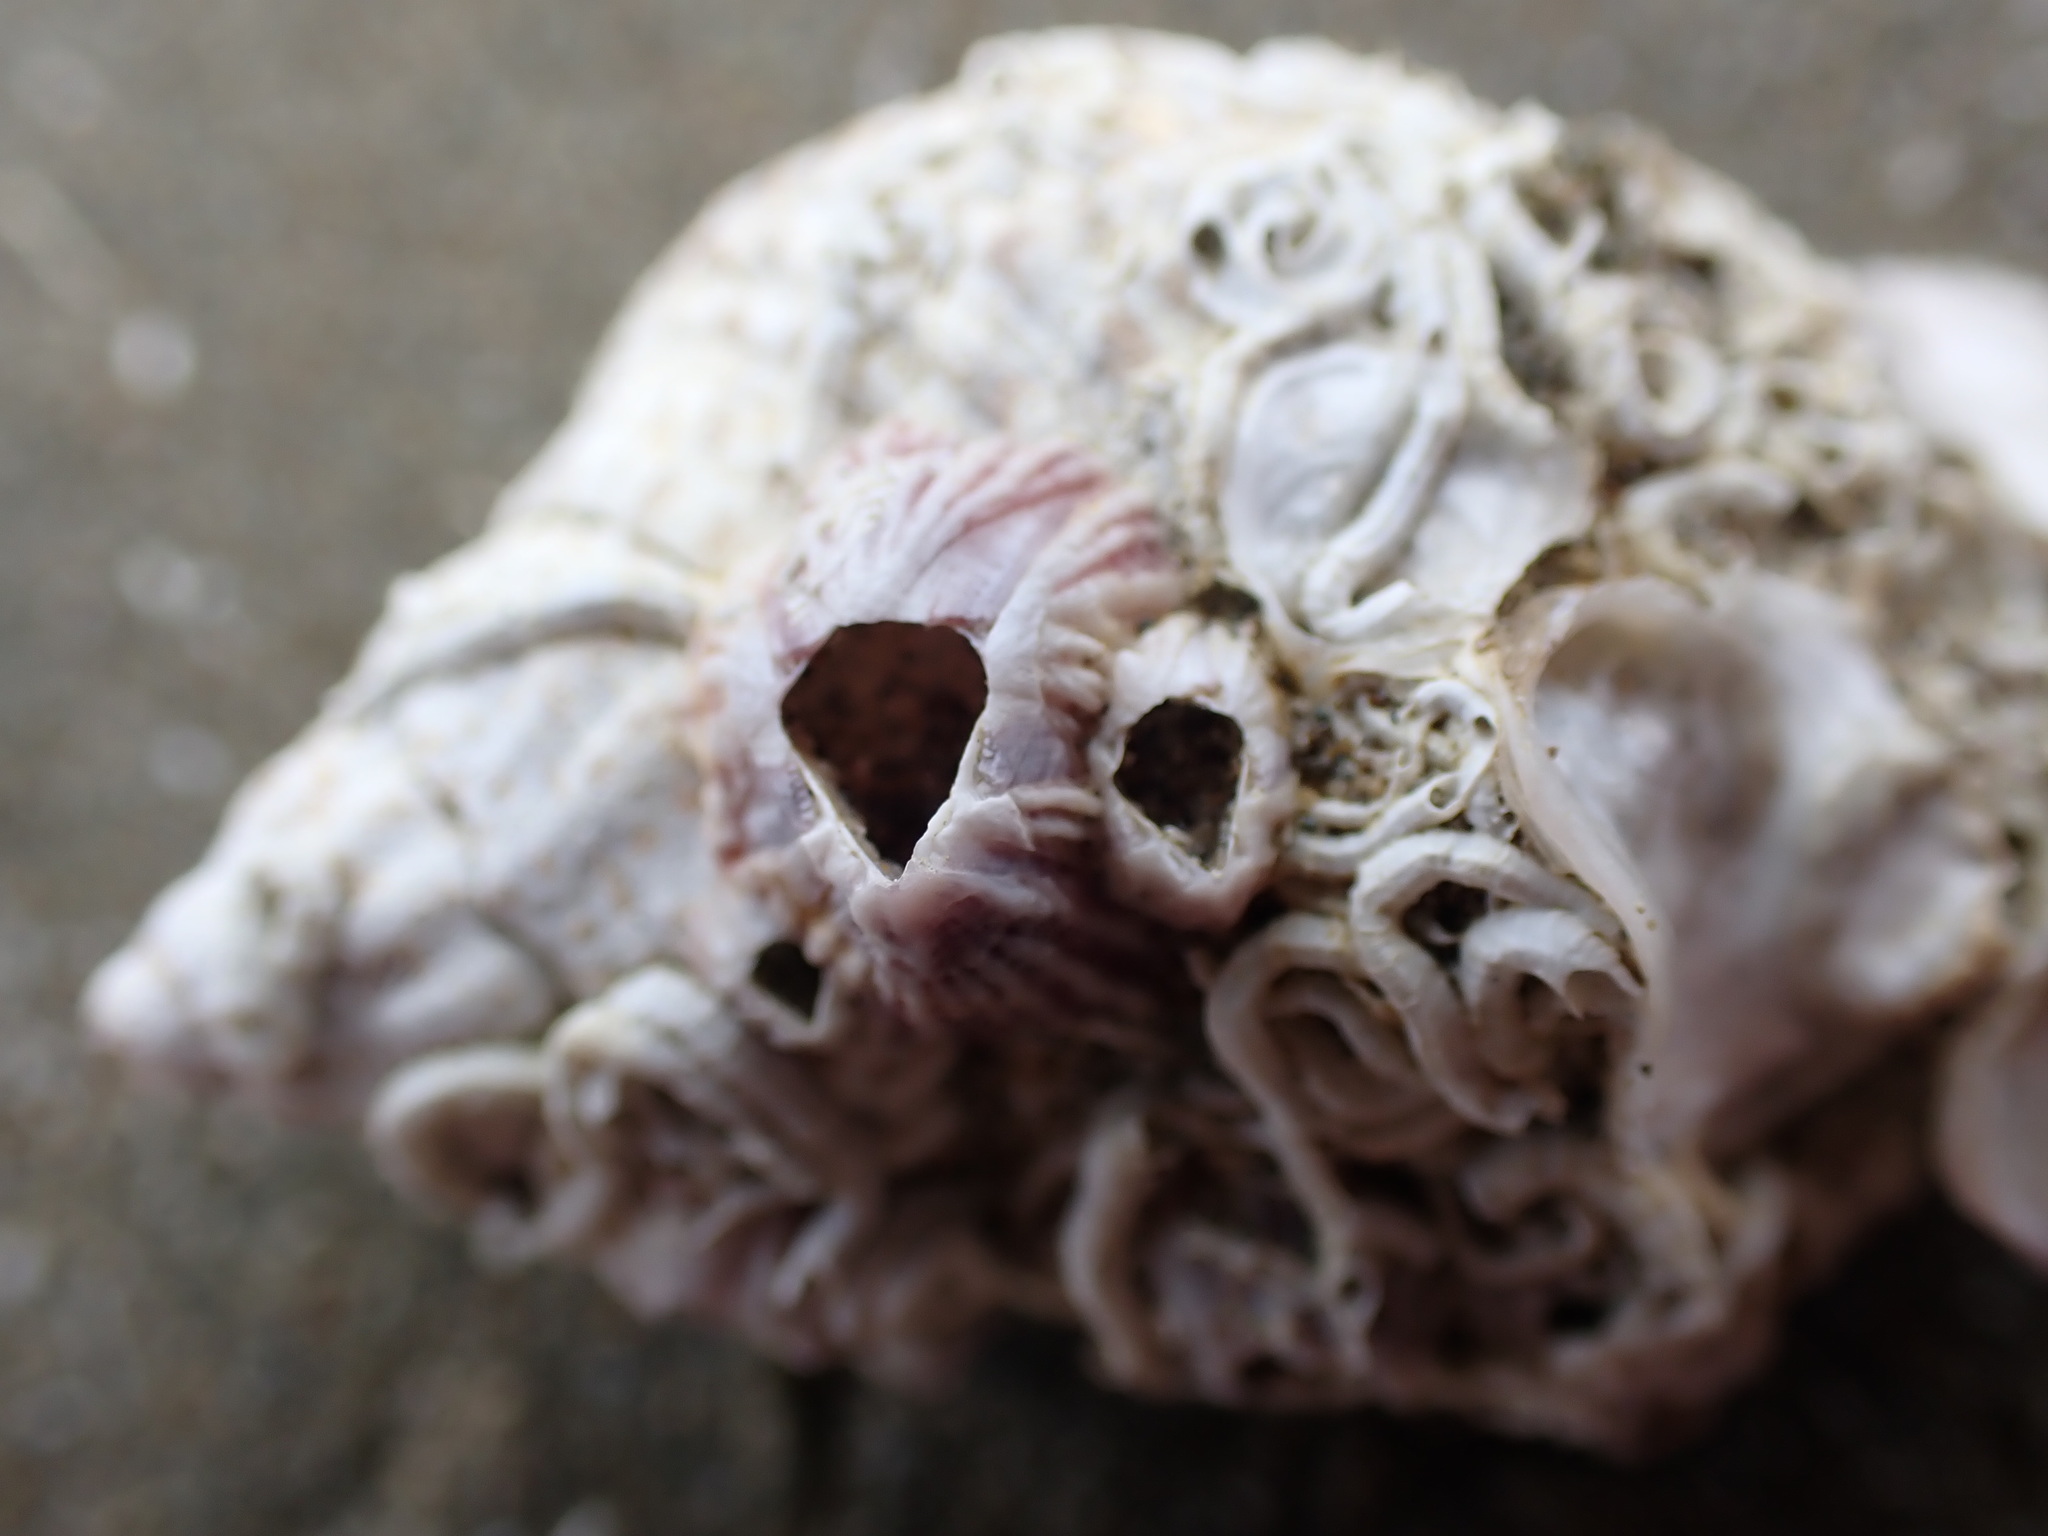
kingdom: Animalia
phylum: Arthropoda
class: Maxillopoda
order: Sessilia
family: Balanidae
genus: Balanus
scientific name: Balanus trigonus
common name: Triangle barnacle
